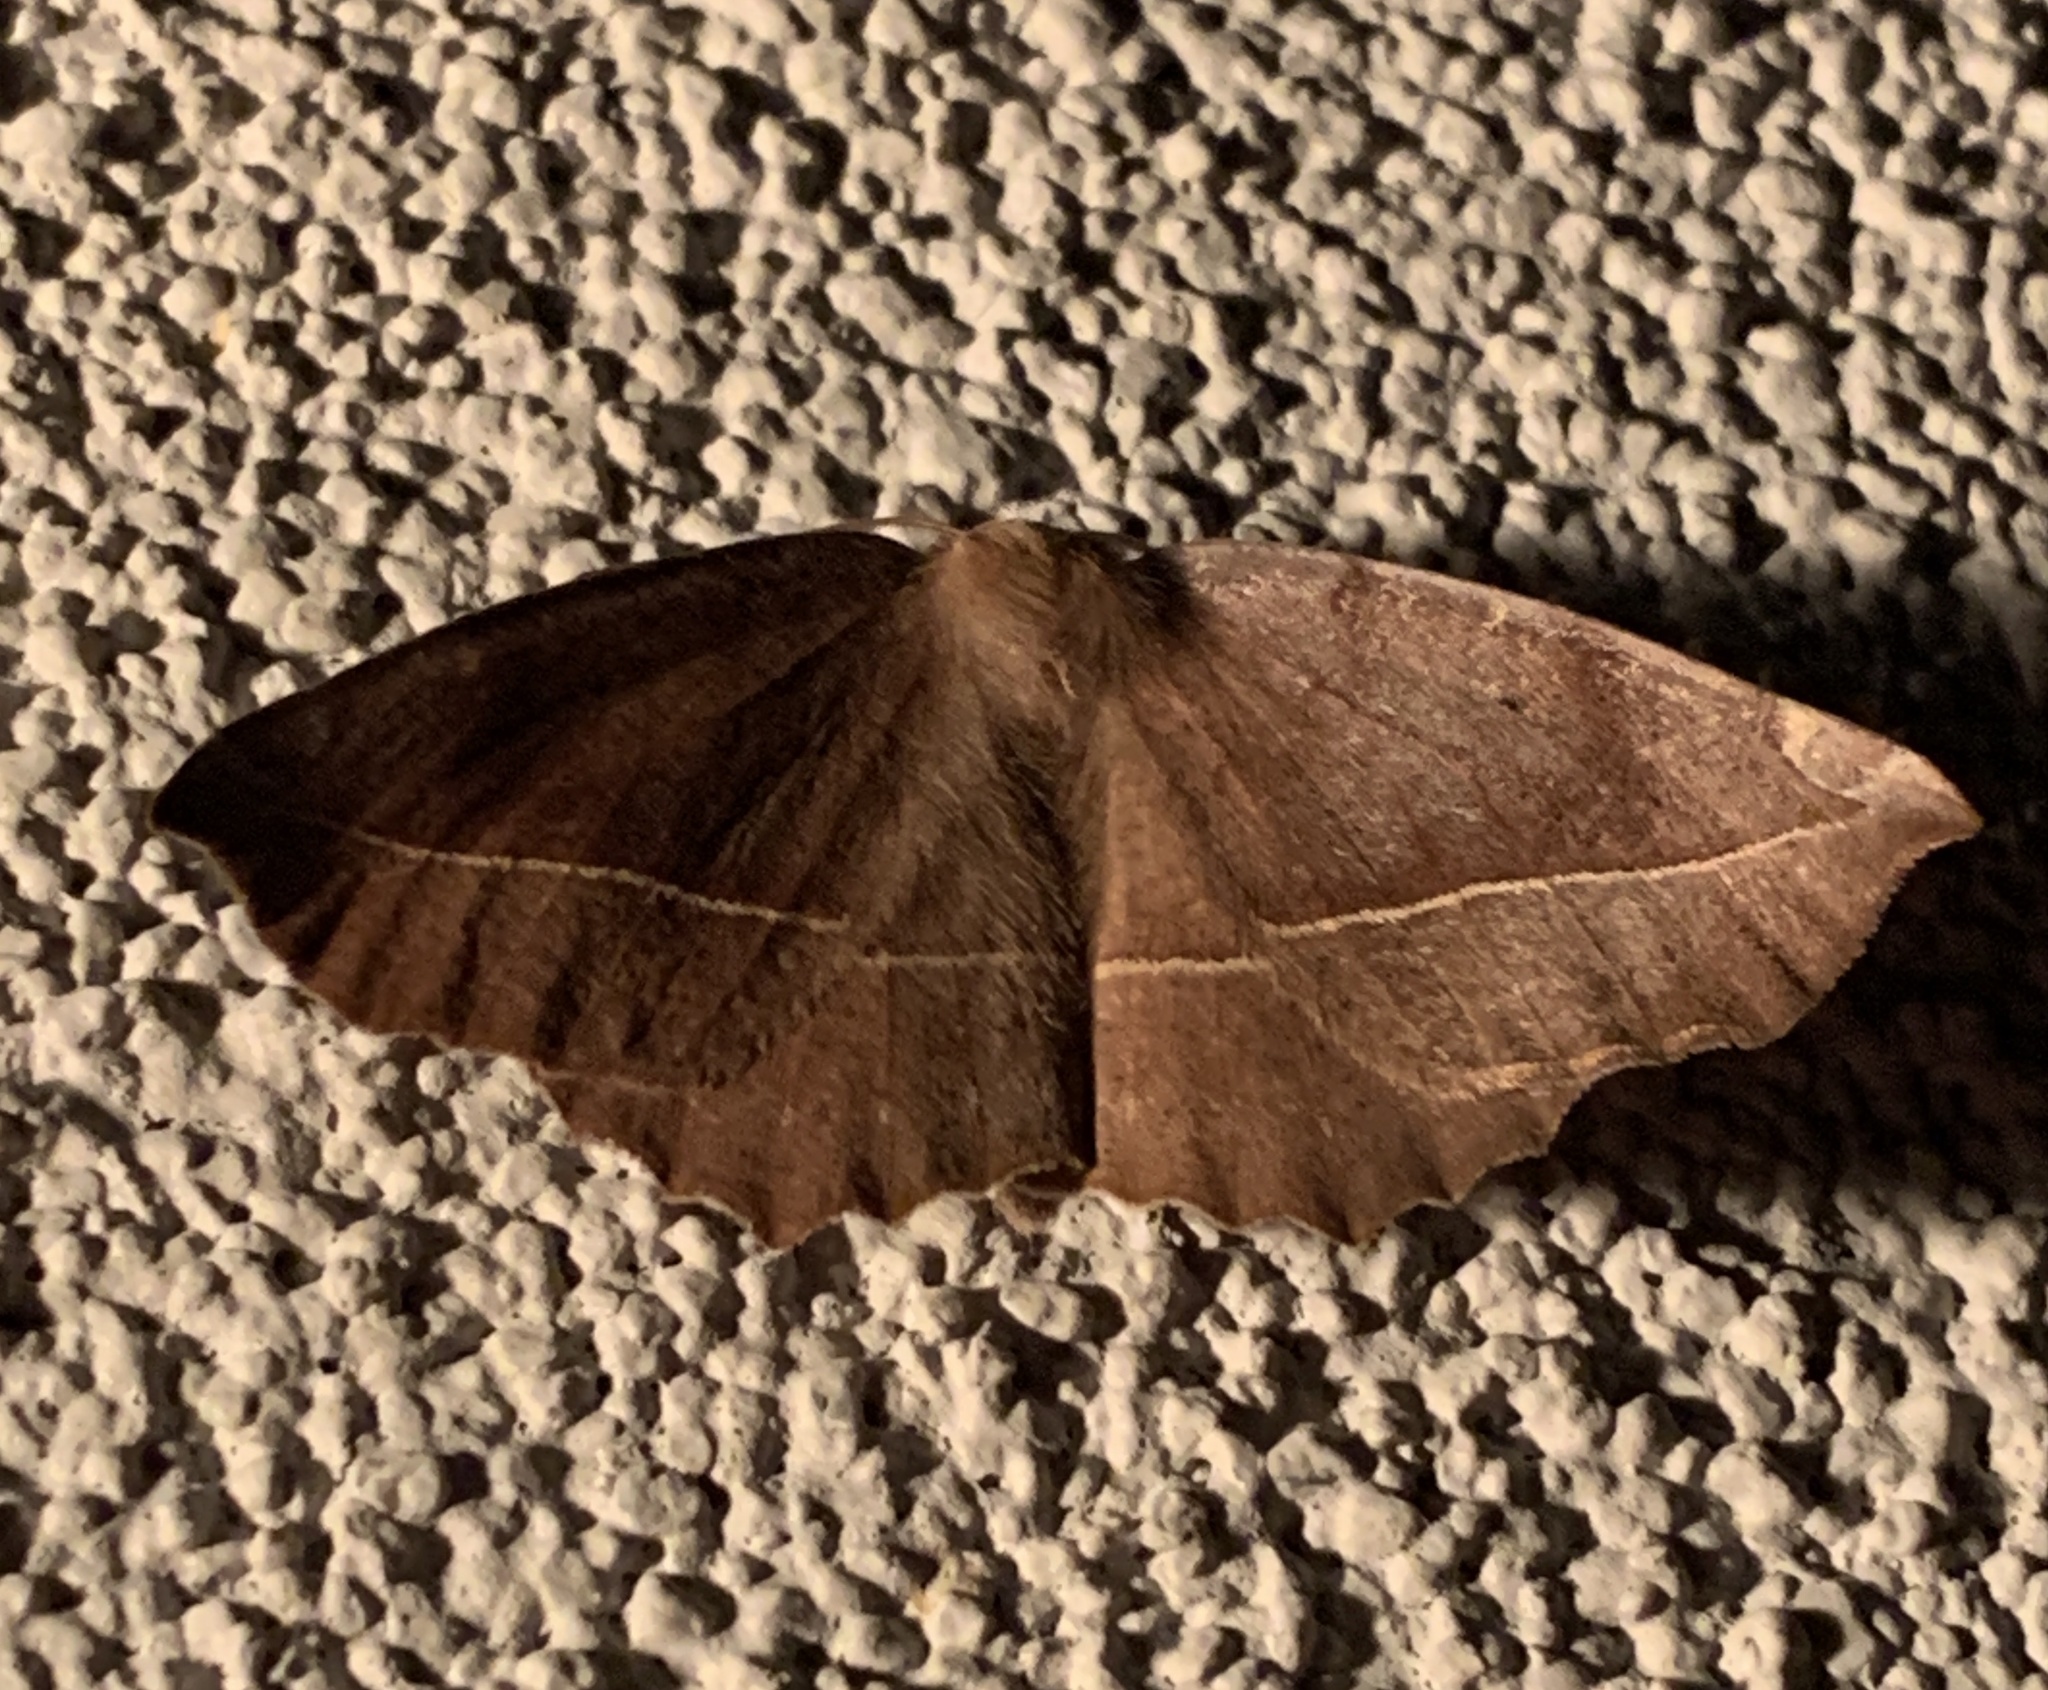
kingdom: Animalia
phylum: Arthropoda
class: Insecta
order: Lepidoptera
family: Geometridae
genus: Eutrapela
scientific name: Eutrapela clemataria
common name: Curved-toothed geometer
